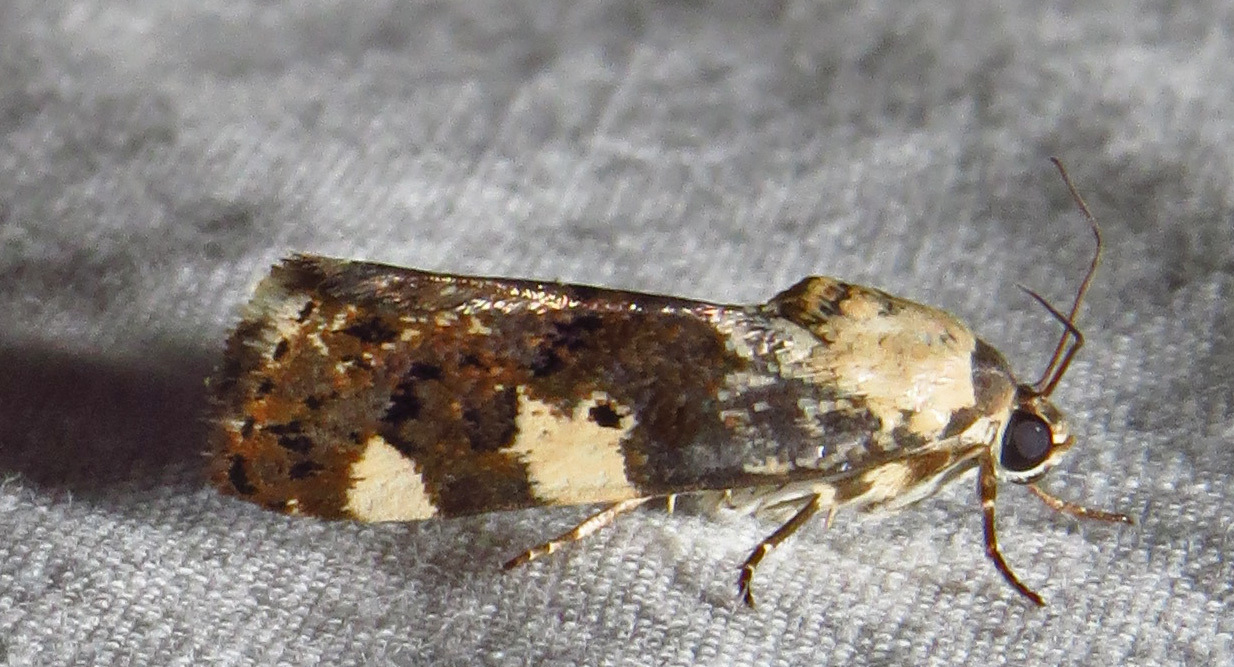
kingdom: Animalia
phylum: Arthropoda
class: Insecta
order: Lepidoptera
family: Noctuidae
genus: Acontia
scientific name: Acontia aprica
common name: Nun
